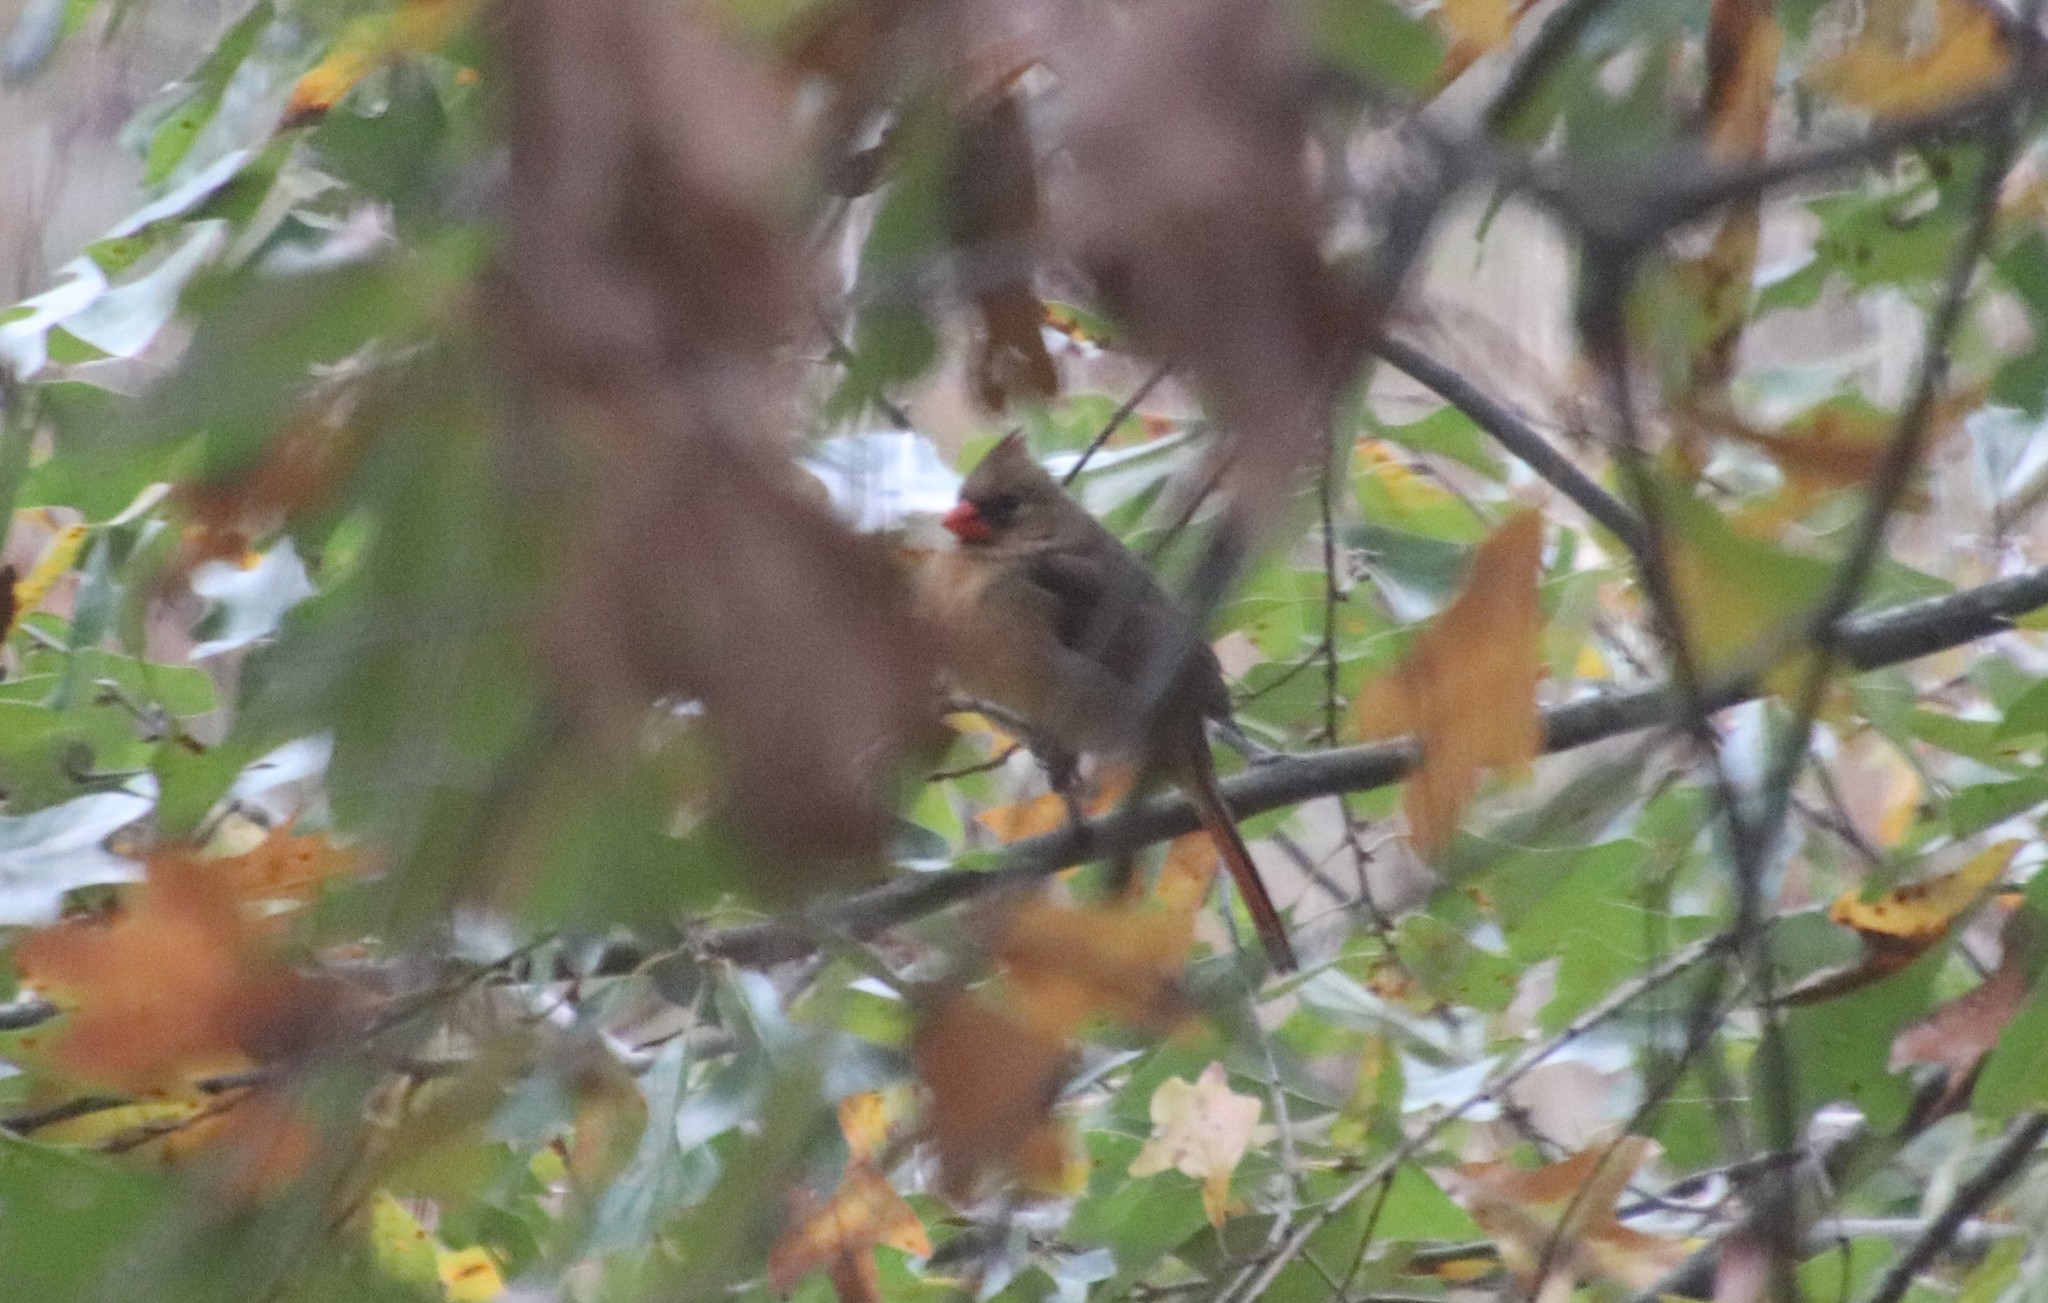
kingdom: Animalia
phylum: Chordata
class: Aves
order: Passeriformes
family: Cardinalidae
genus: Cardinalis
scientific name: Cardinalis cardinalis
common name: Northern cardinal
